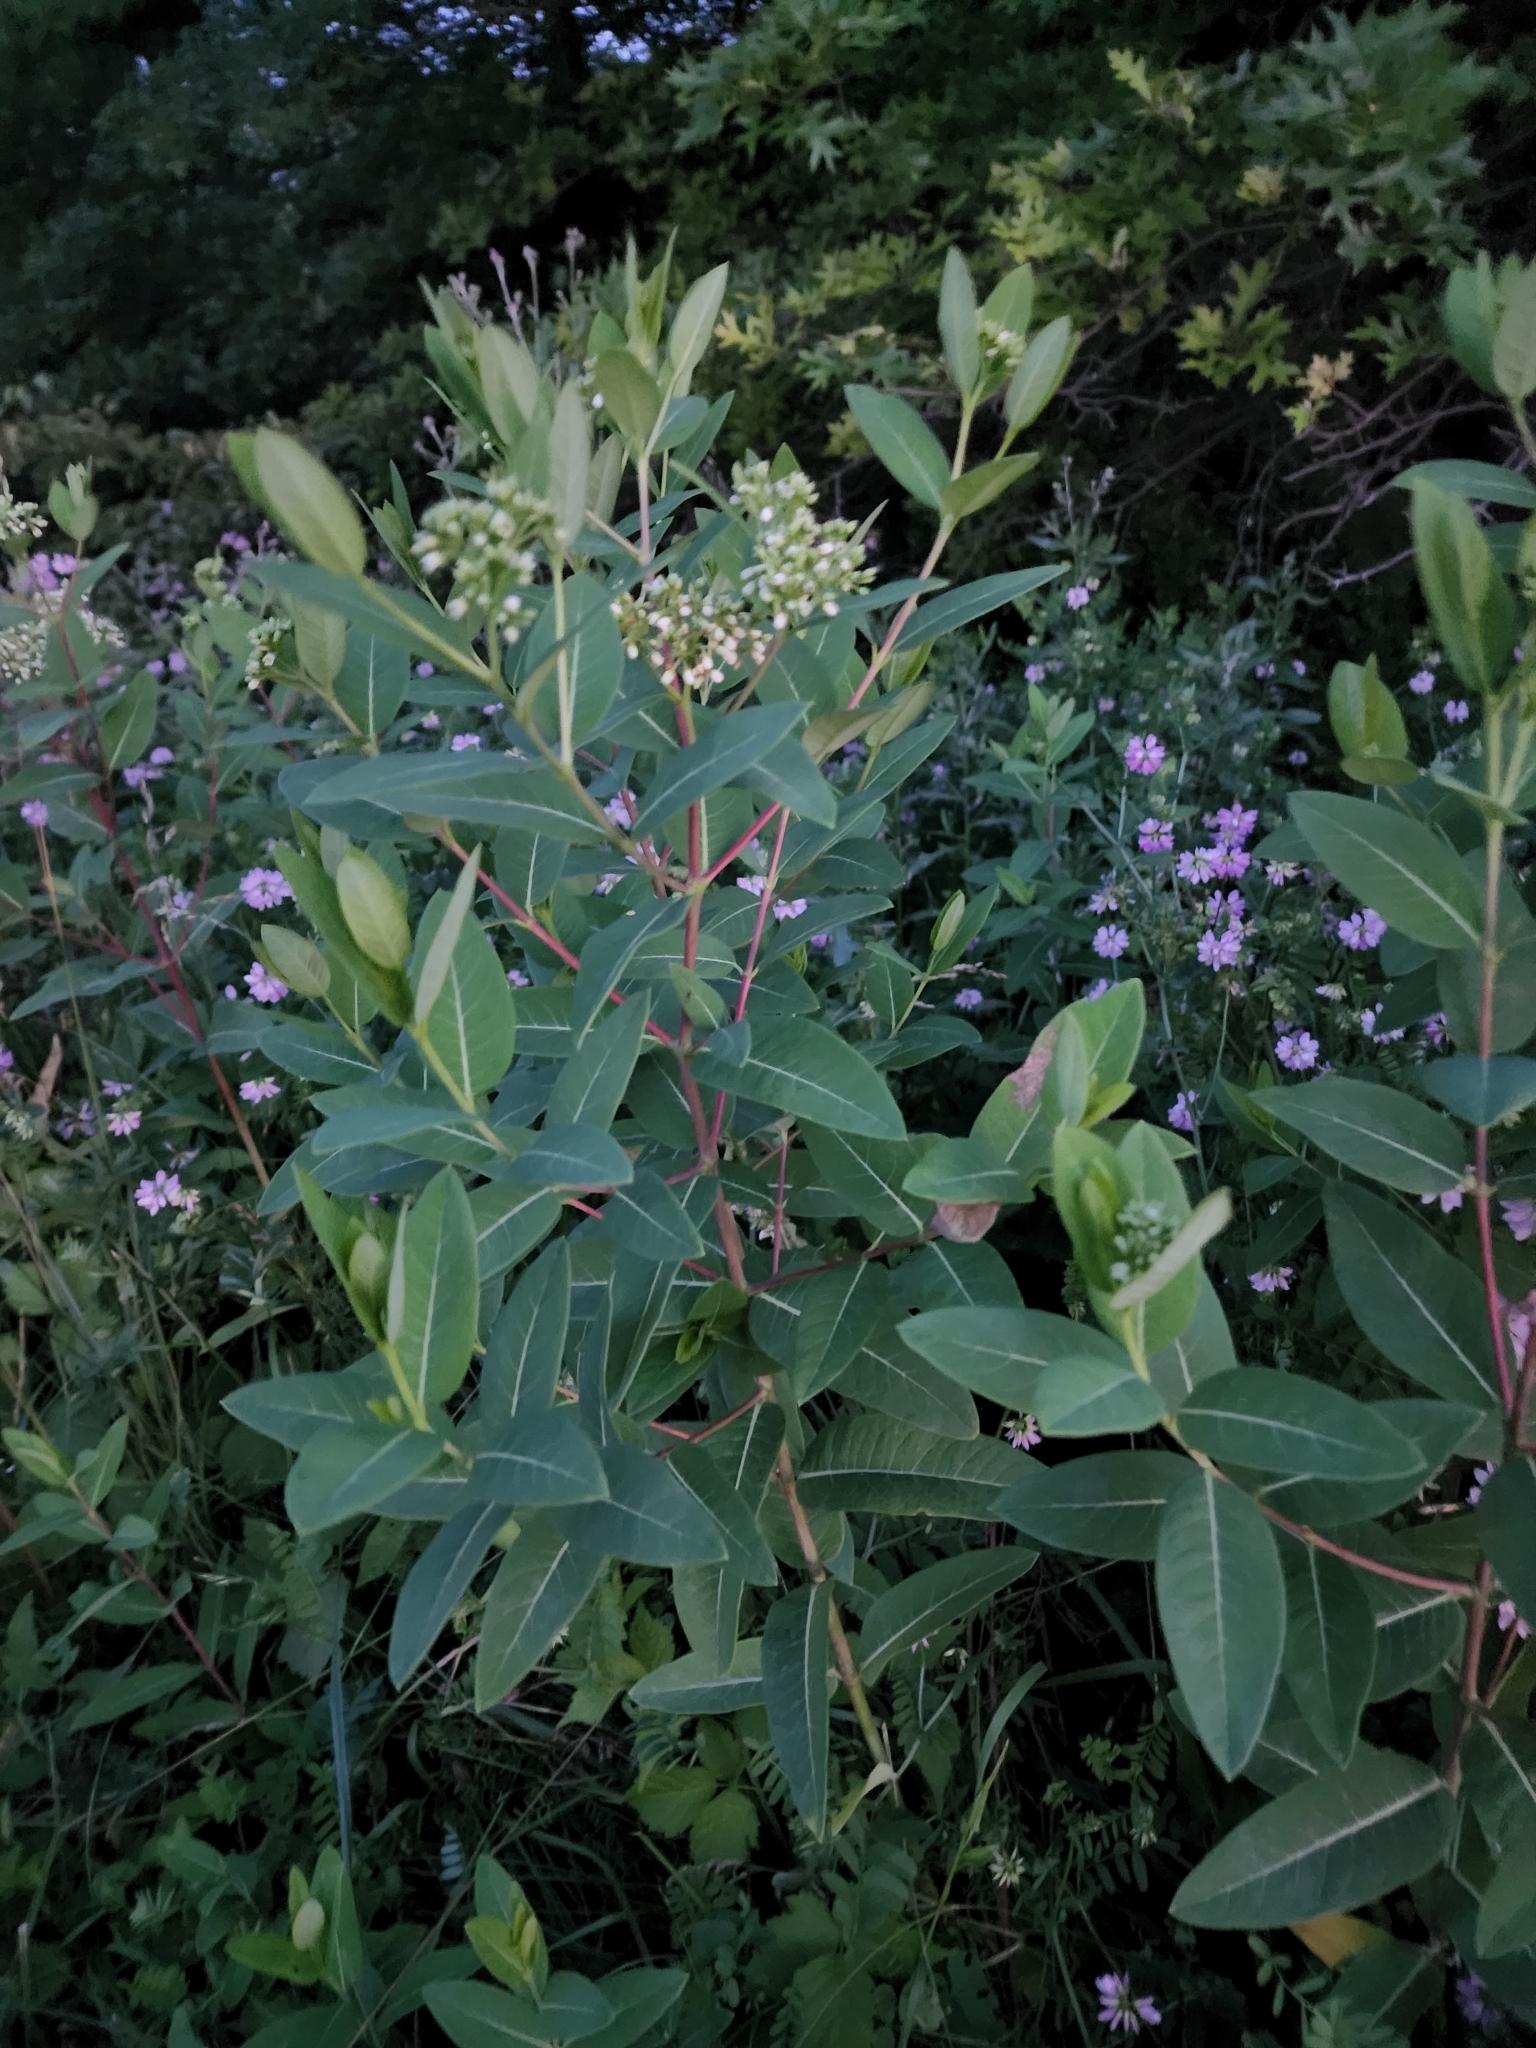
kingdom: Plantae
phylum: Tracheophyta
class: Magnoliopsida
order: Gentianales
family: Apocynaceae
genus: Apocynum
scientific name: Apocynum cannabinum
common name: Hemp dogbane
